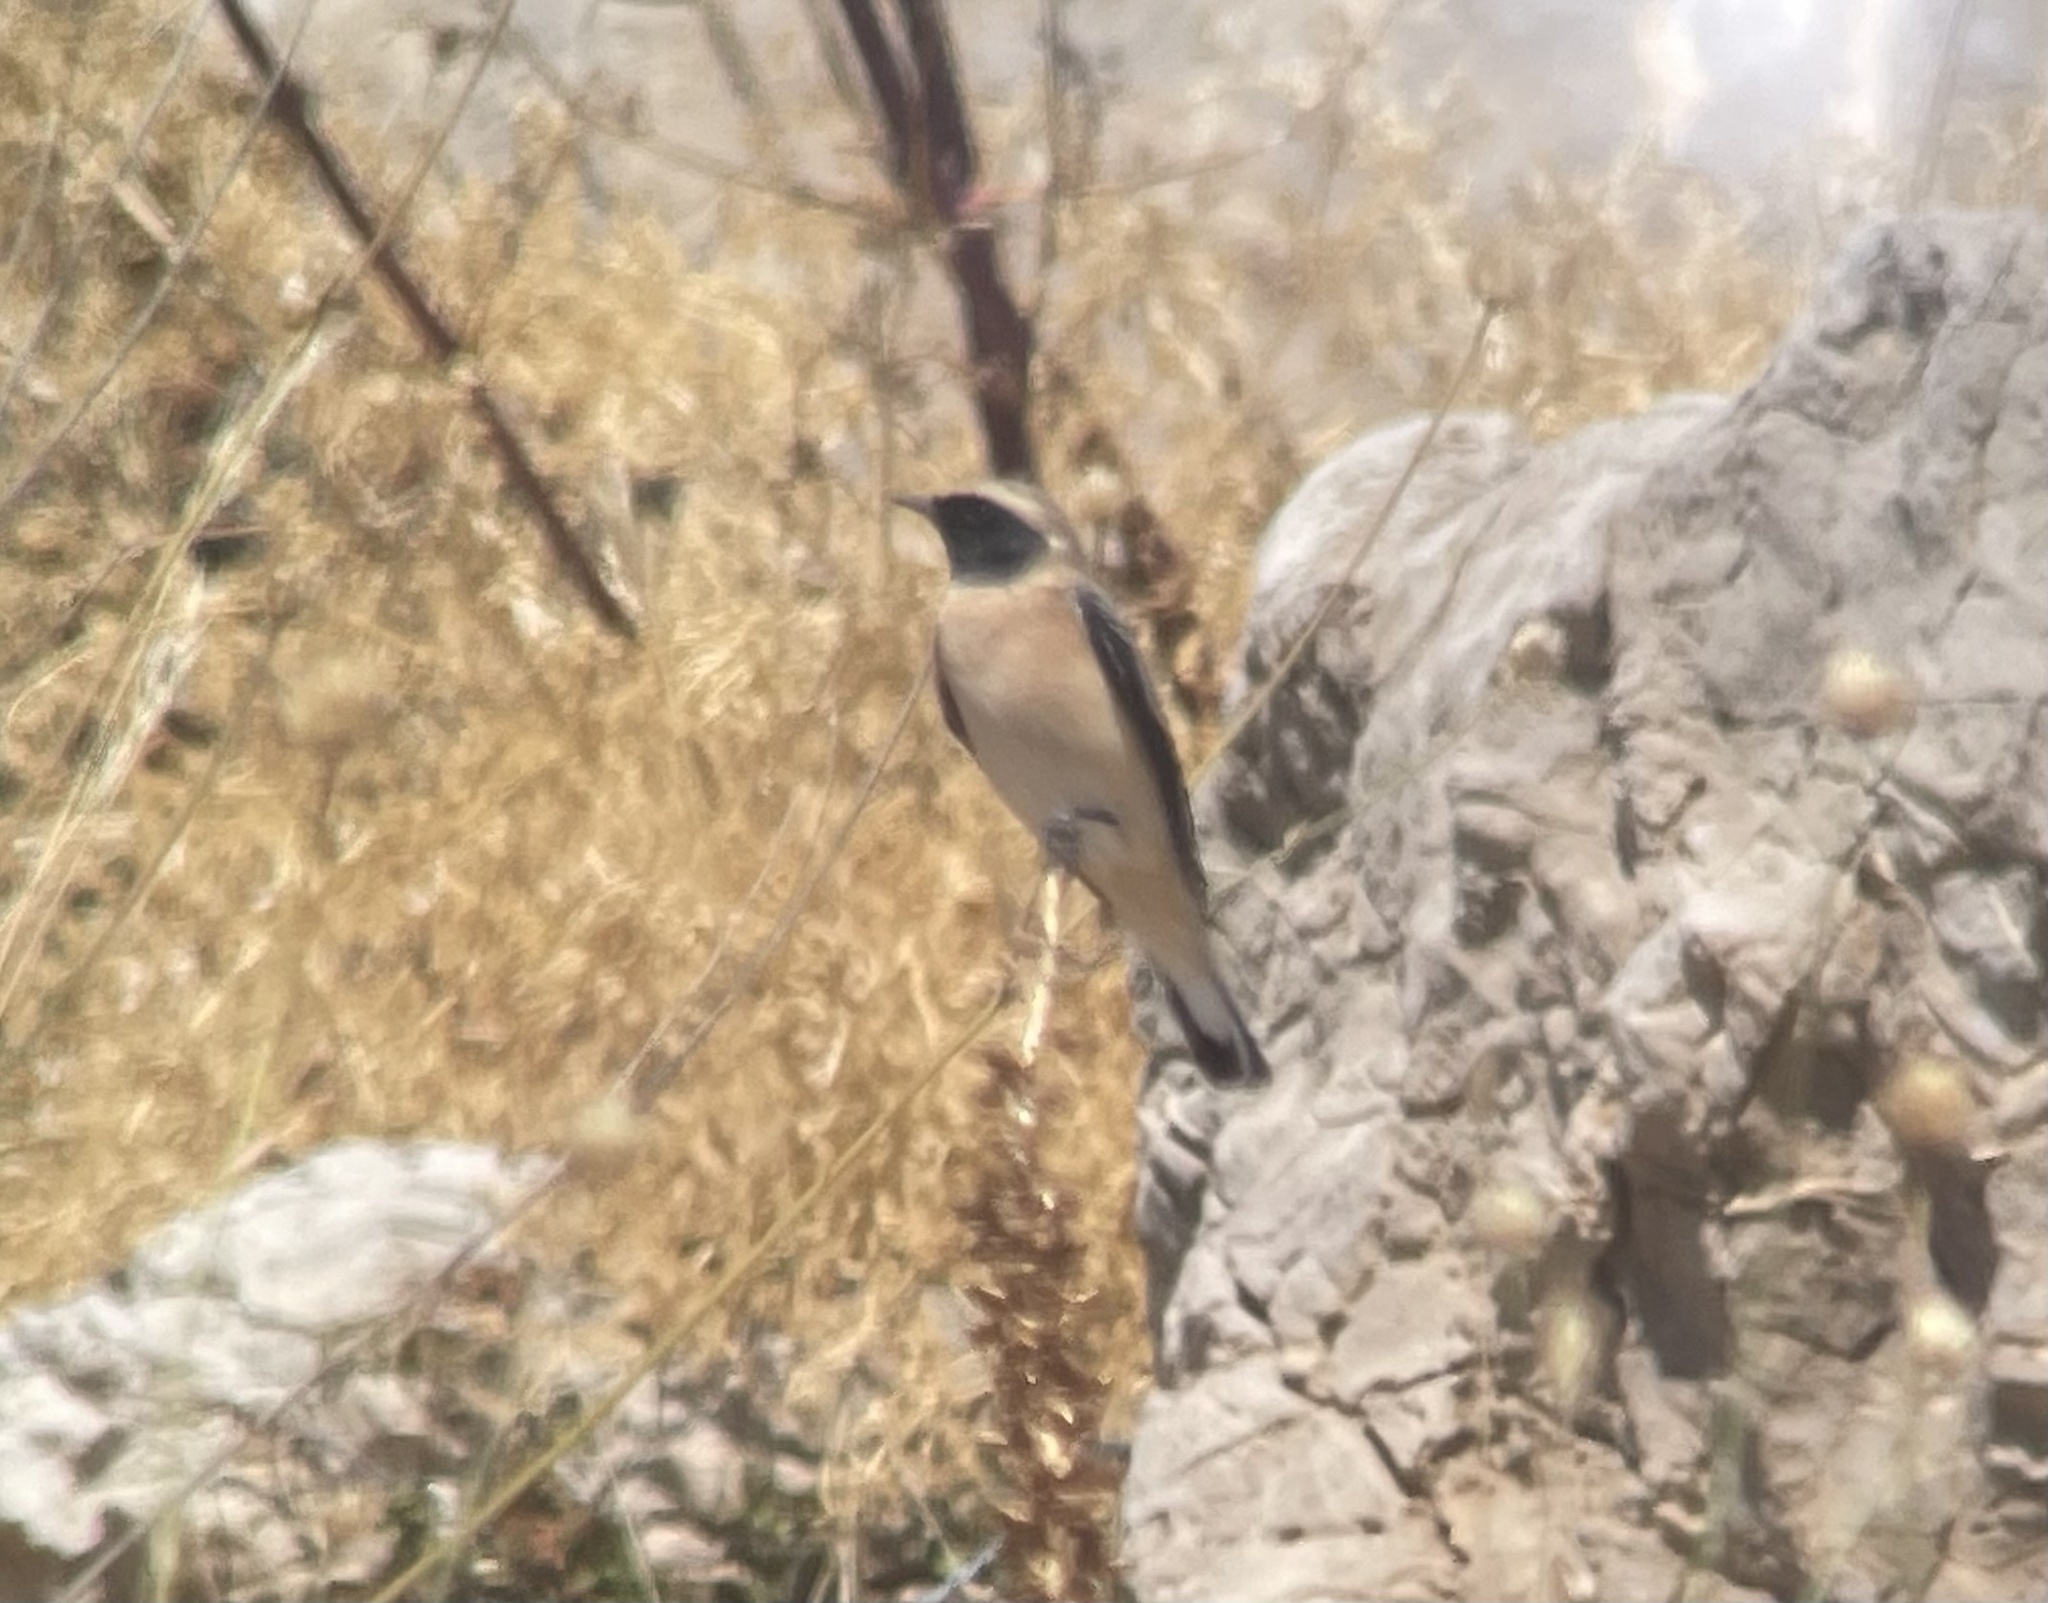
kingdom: Animalia
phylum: Chordata
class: Aves
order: Passeriformes
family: Muscicapidae
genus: Oenanthe
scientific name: Oenanthe hispanica
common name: Black-eared wheatear
